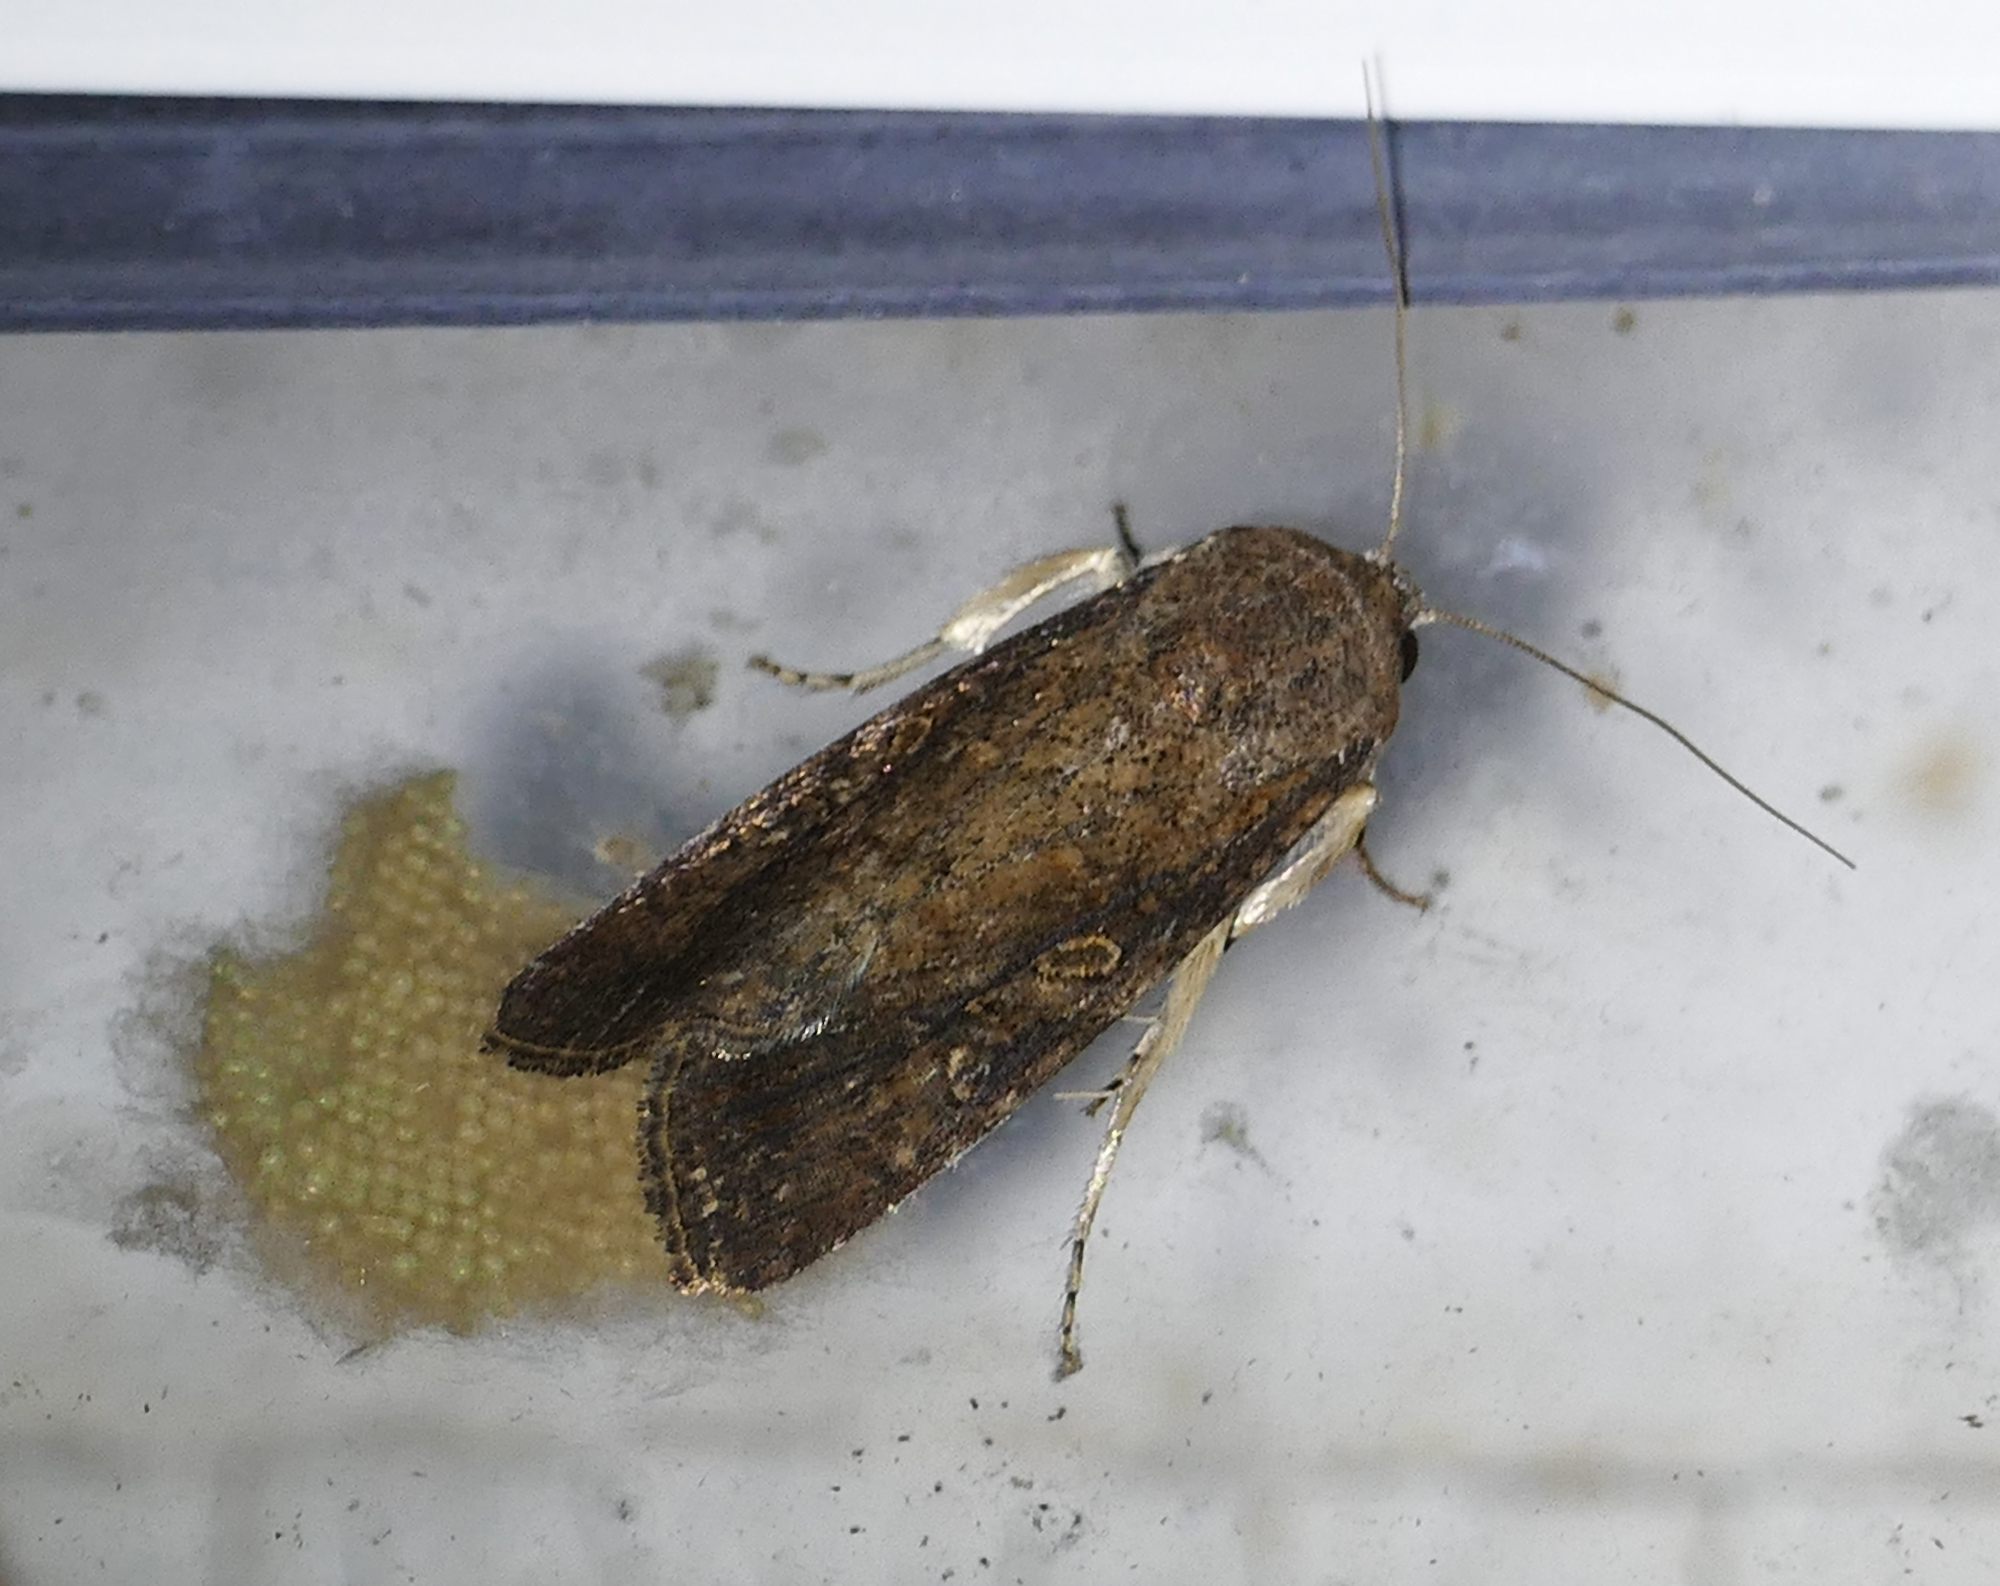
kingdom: Animalia
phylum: Arthropoda
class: Insecta
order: Lepidoptera
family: Noctuidae
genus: Spodoptera
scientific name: Spodoptera frugiperda
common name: Fall armyworm
